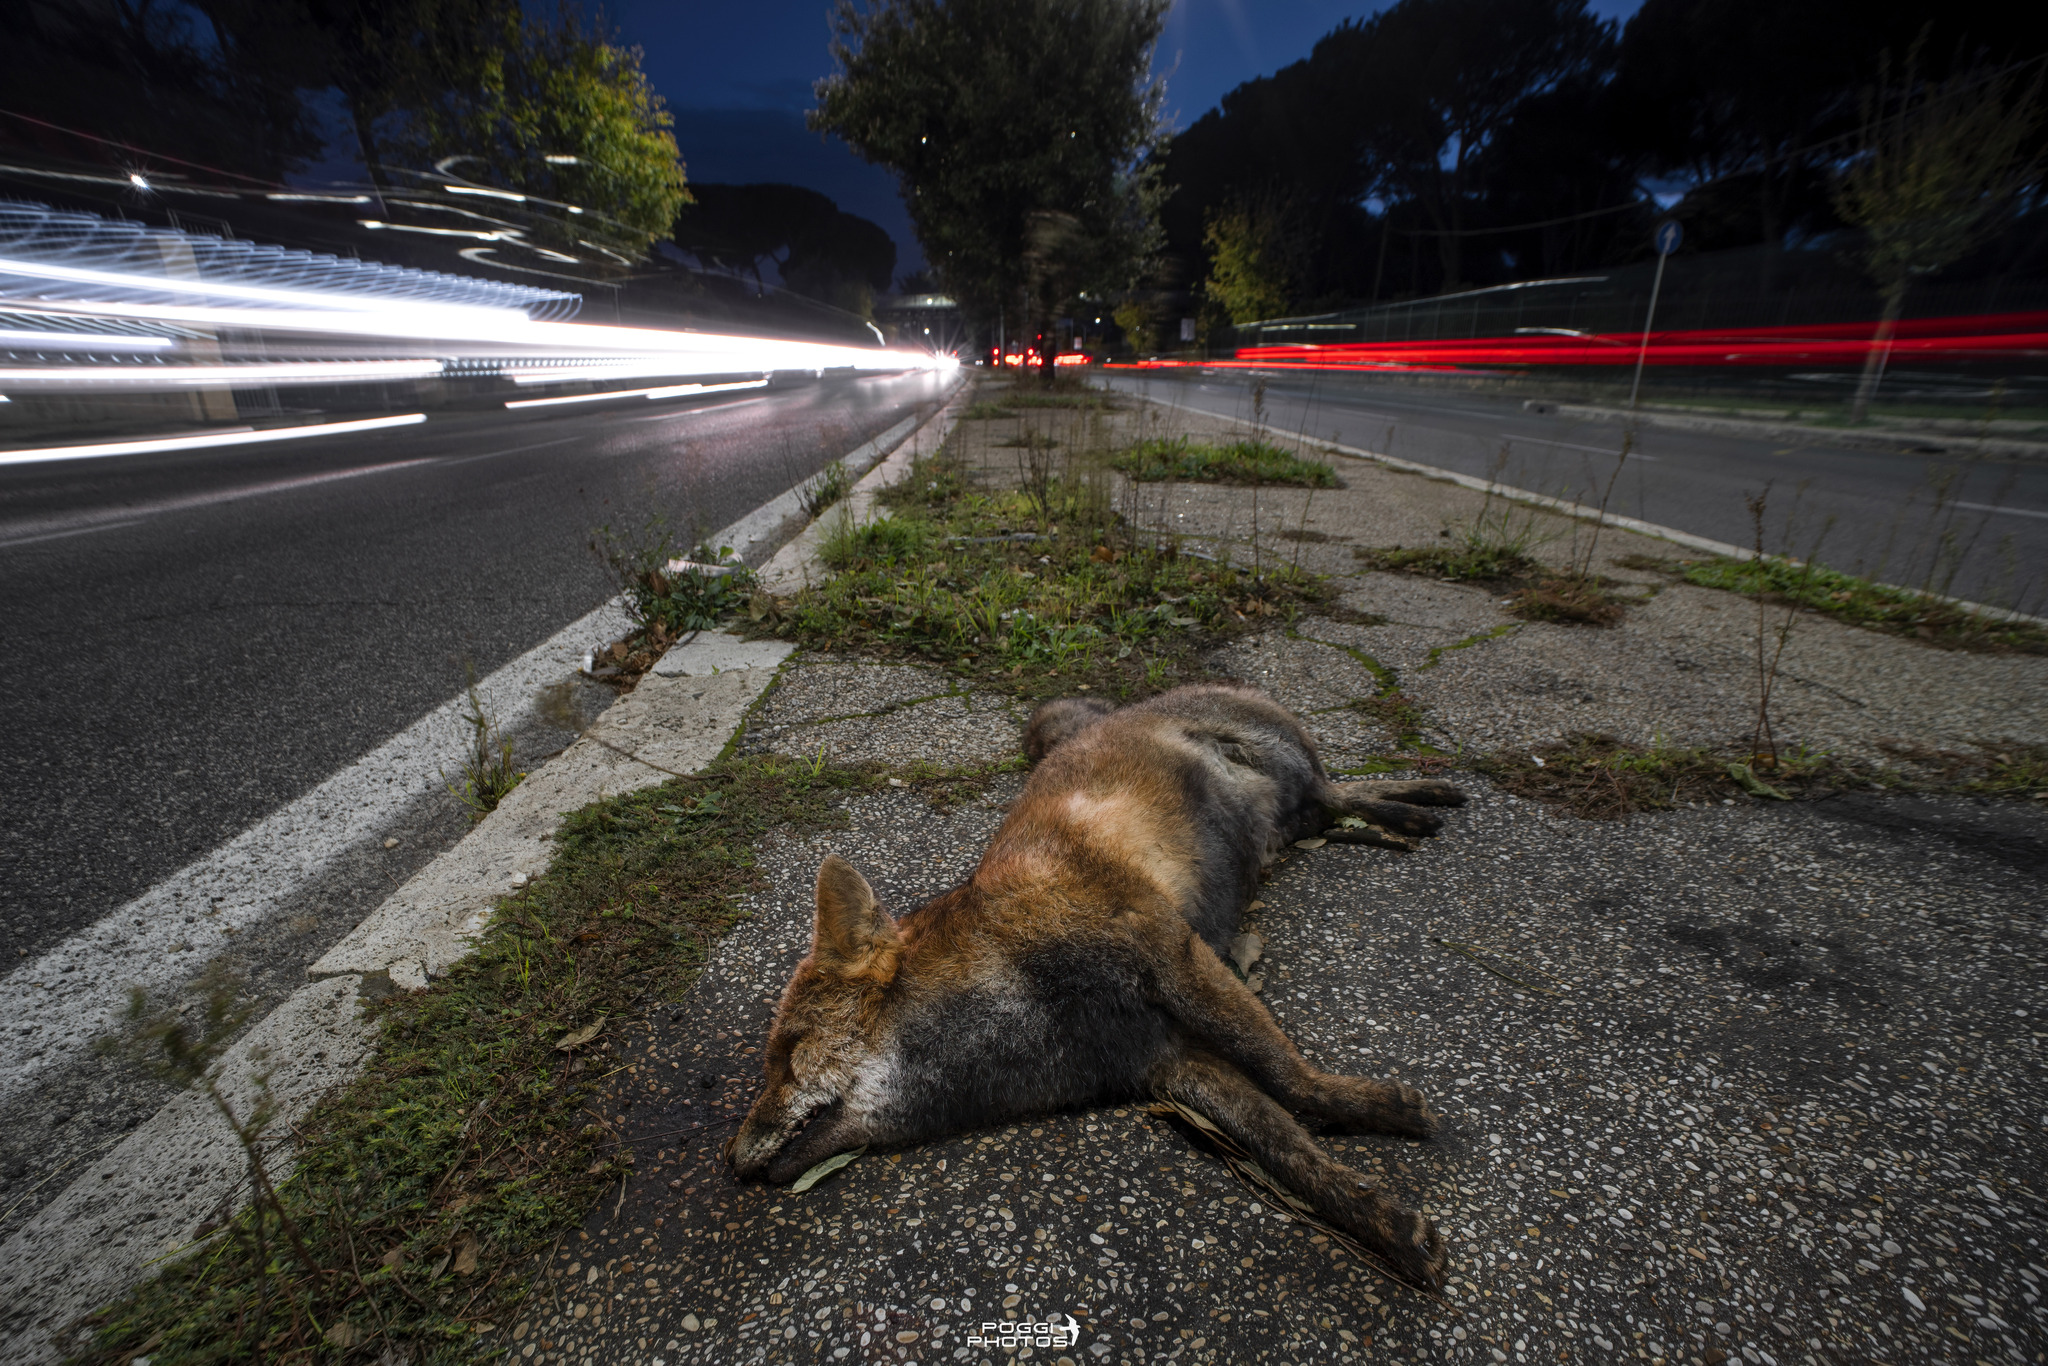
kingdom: Animalia
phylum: Chordata
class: Mammalia
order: Carnivora
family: Canidae
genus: Vulpes
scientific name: Vulpes vulpes
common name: Red fox
